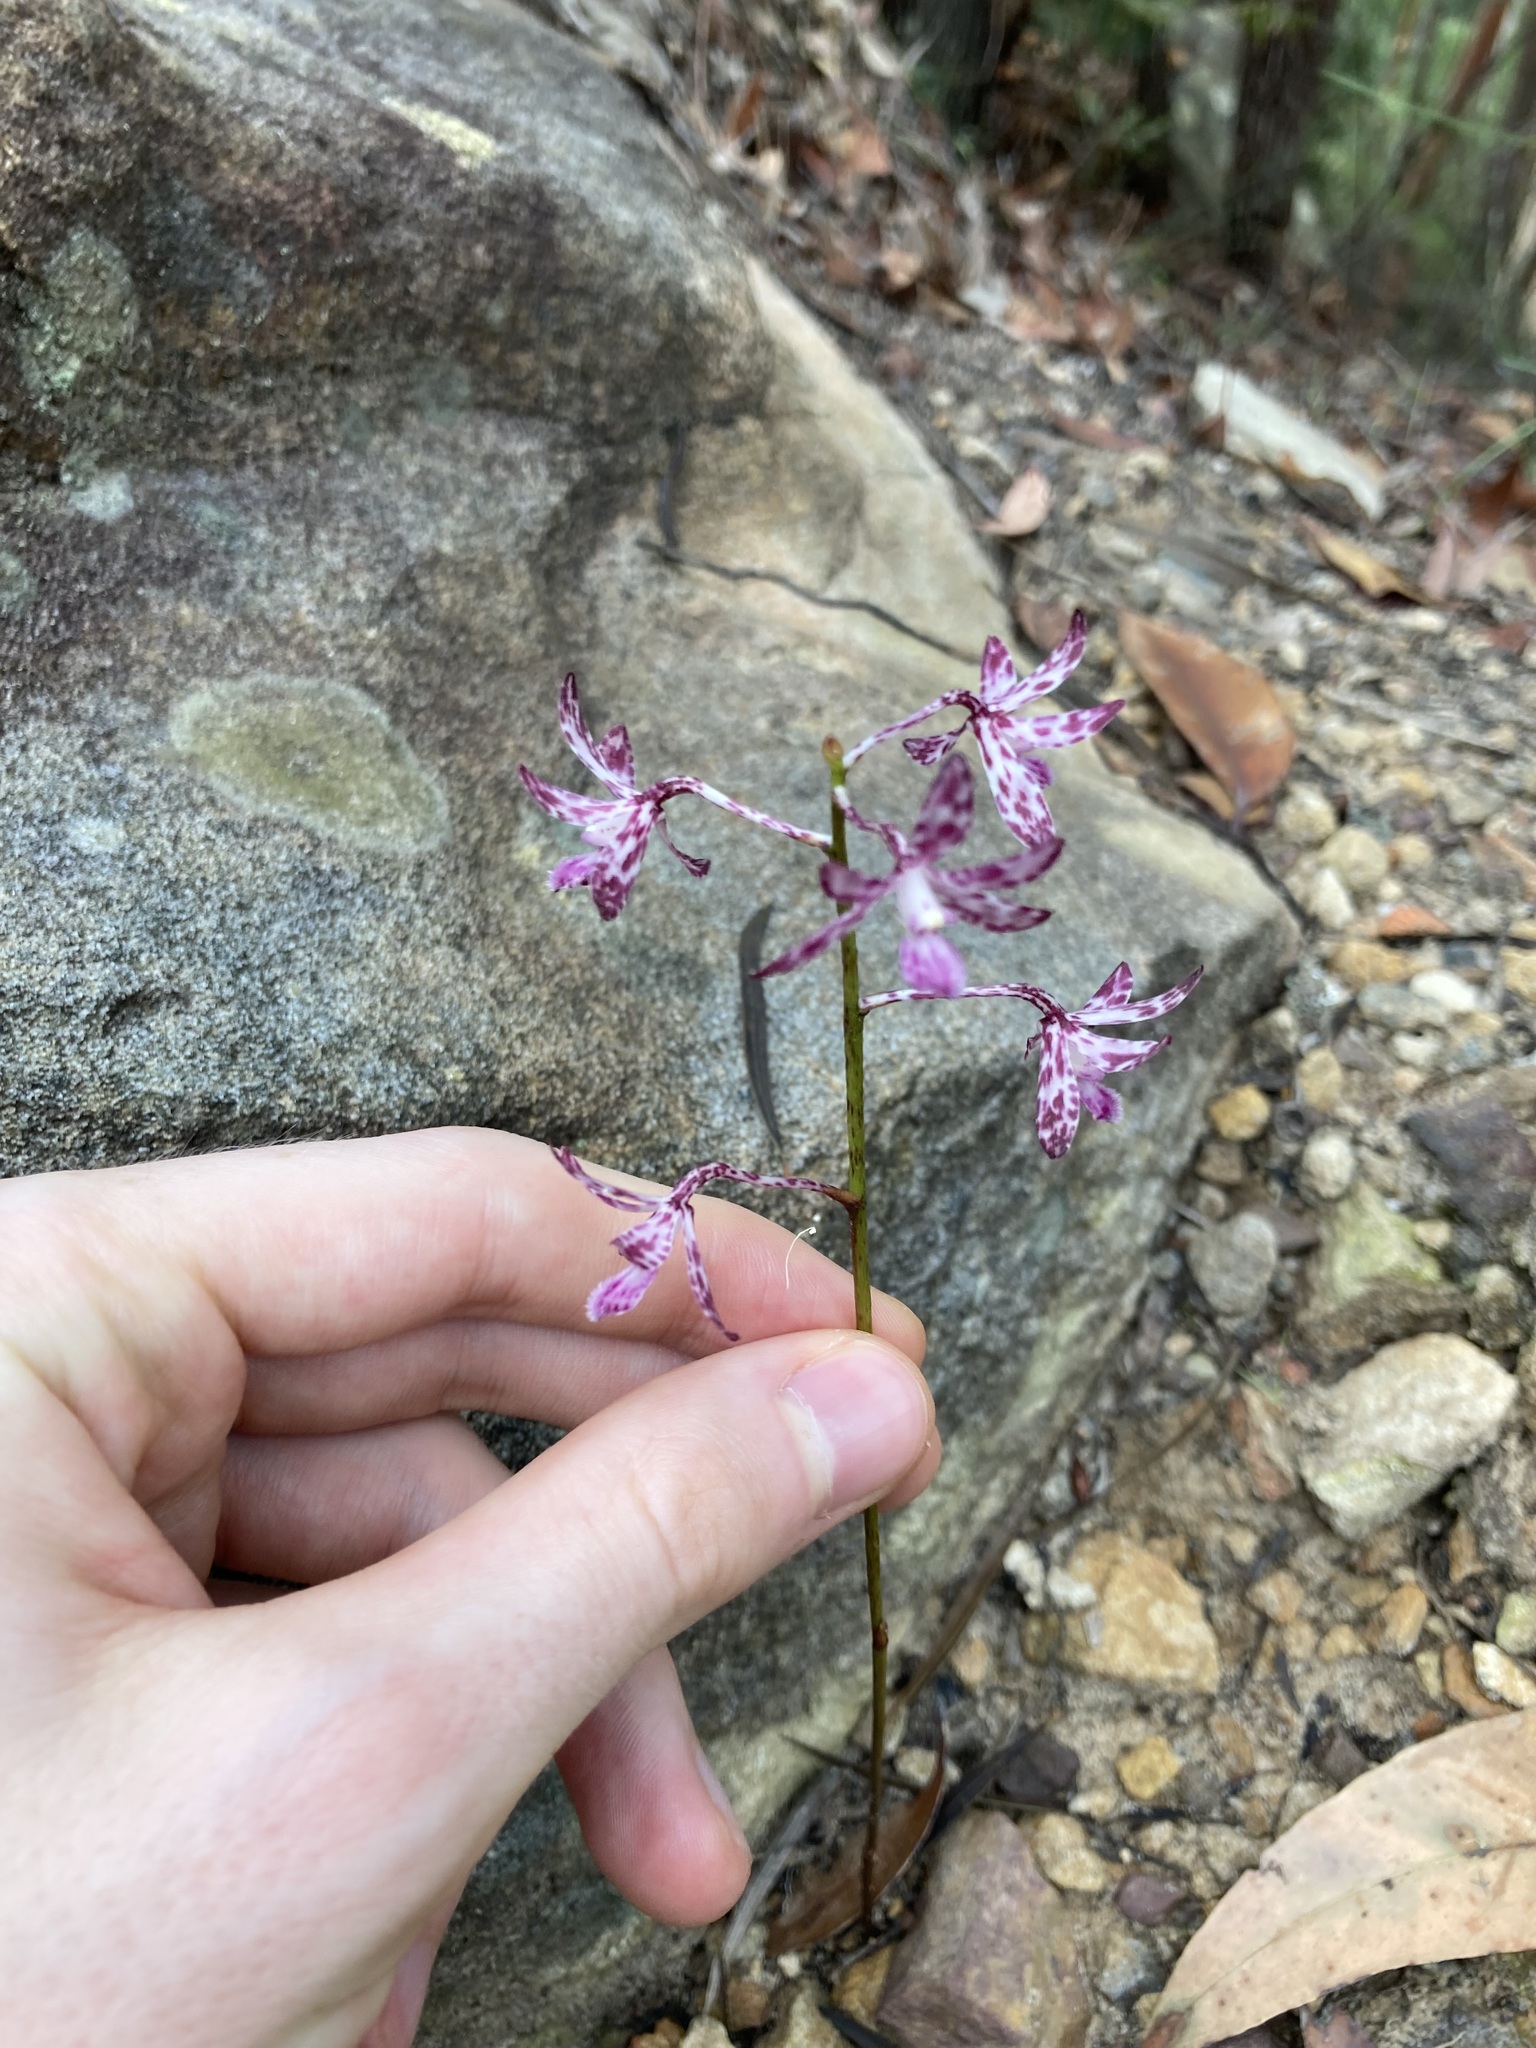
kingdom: Plantae
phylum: Tracheophyta
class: Liliopsida
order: Asparagales
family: Orchidaceae
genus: Dipodium
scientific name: Dipodium variegatum
